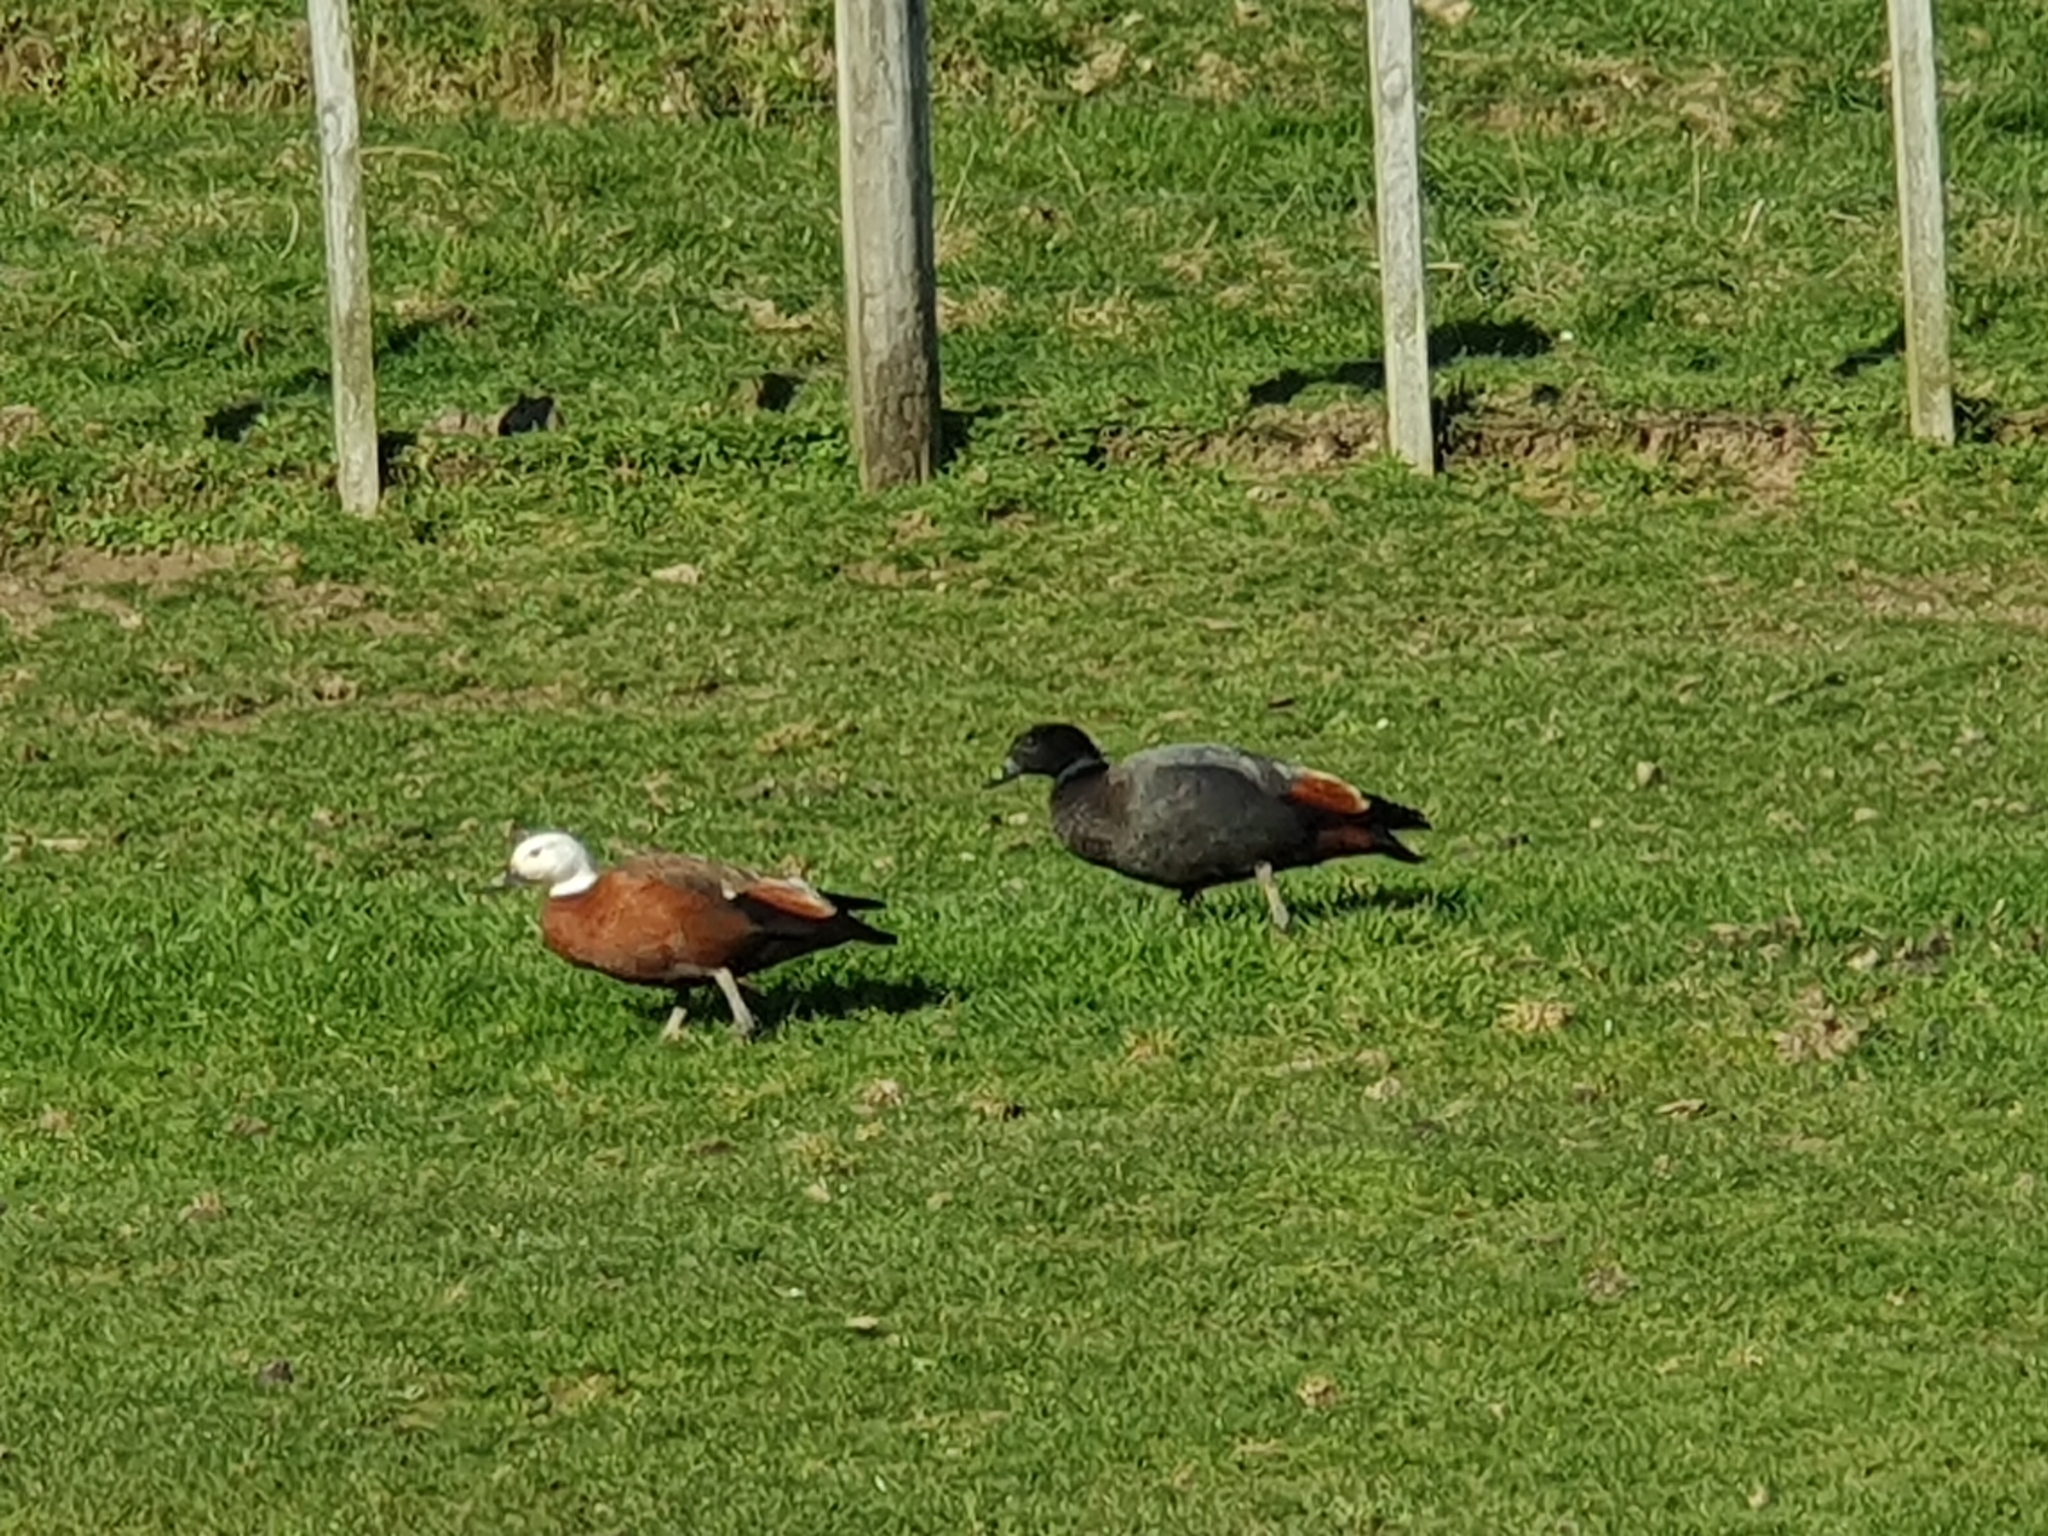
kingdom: Animalia
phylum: Chordata
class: Aves
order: Anseriformes
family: Anatidae
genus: Tadorna
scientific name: Tadorna variegata
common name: Paradise shelduck
